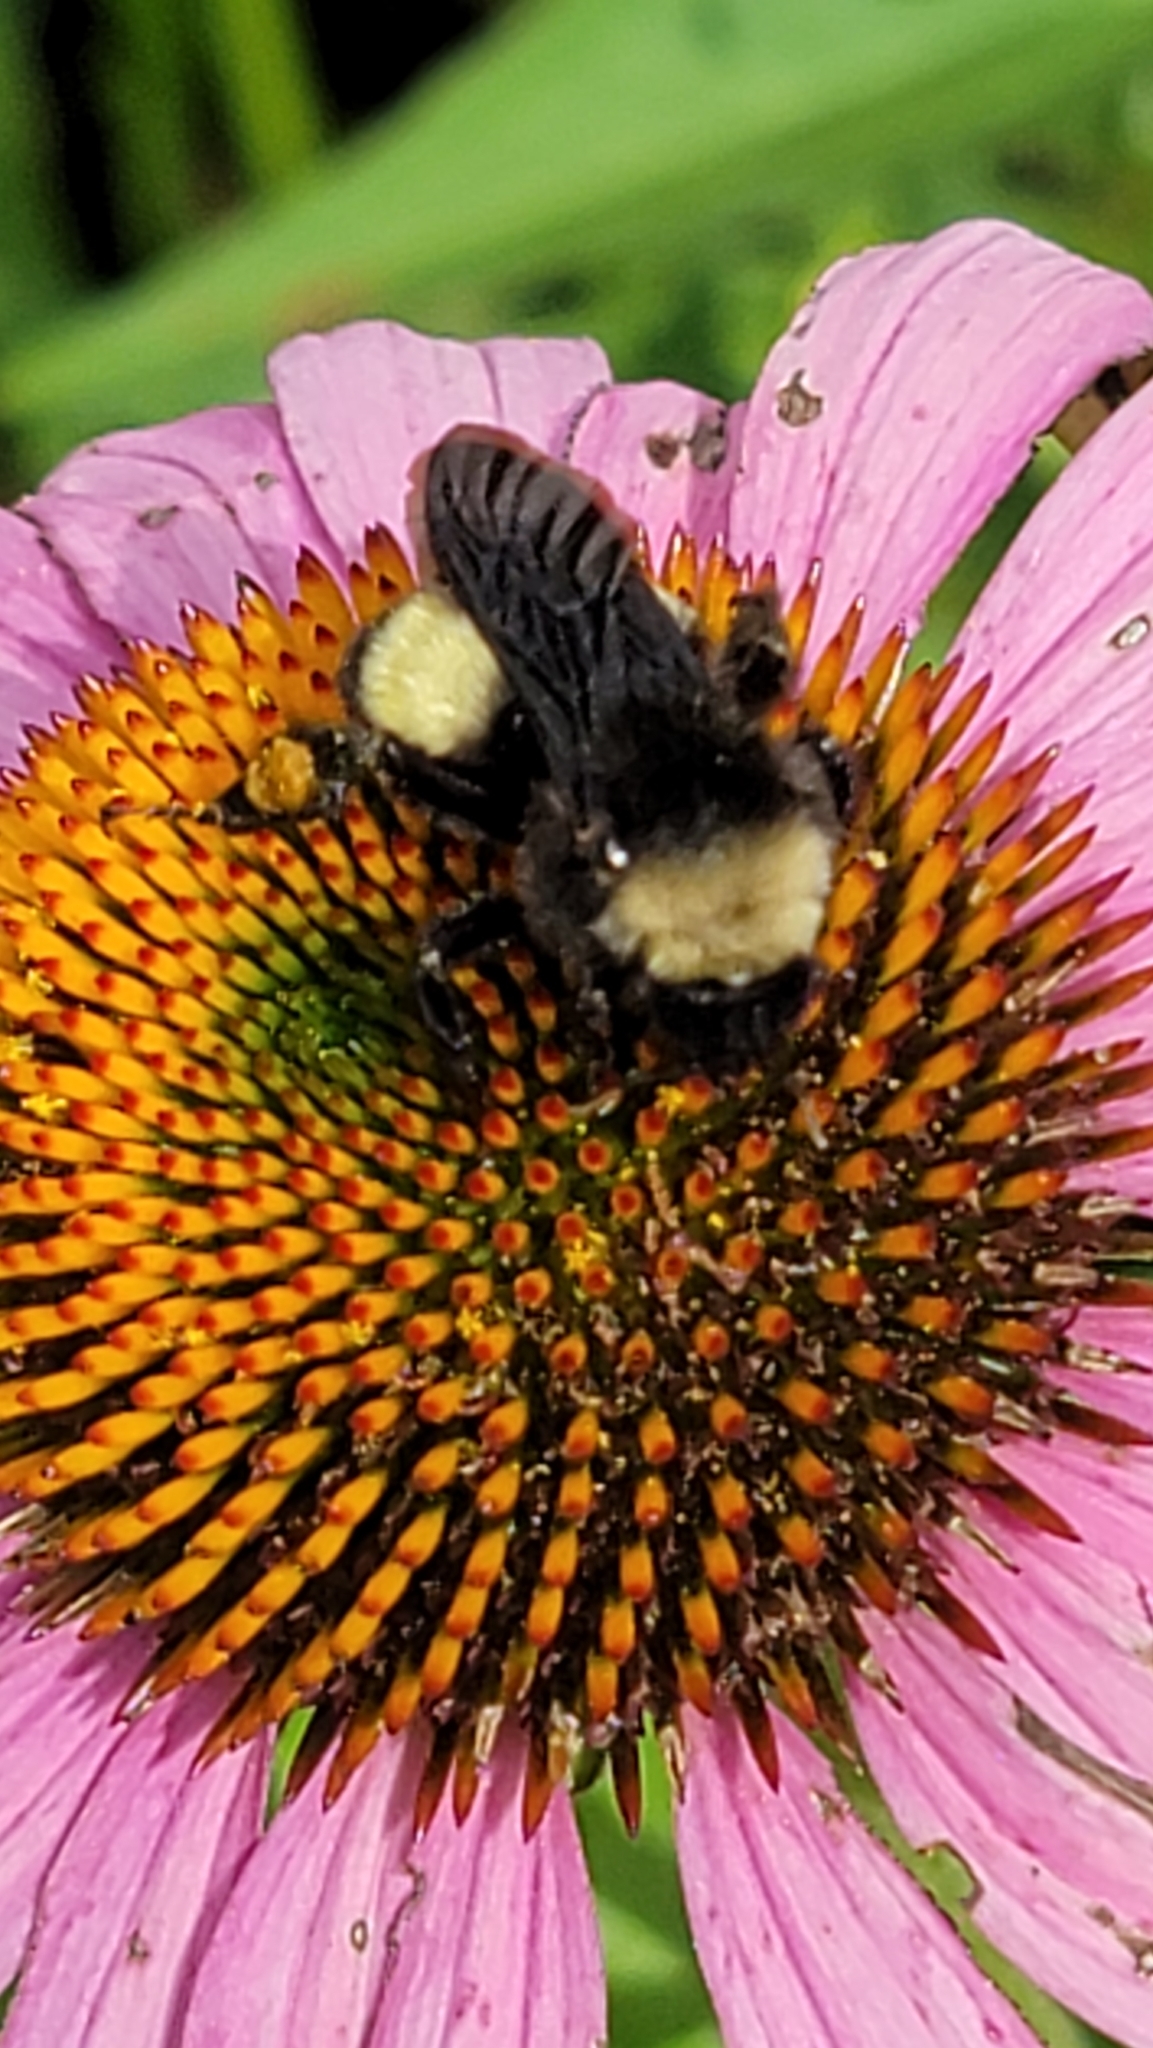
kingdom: Animalia
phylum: Arthropoda
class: Insecta
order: Hymenoptera
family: Apidae
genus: Bombus
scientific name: Bombus pensylvanicus
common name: Bumble bee
